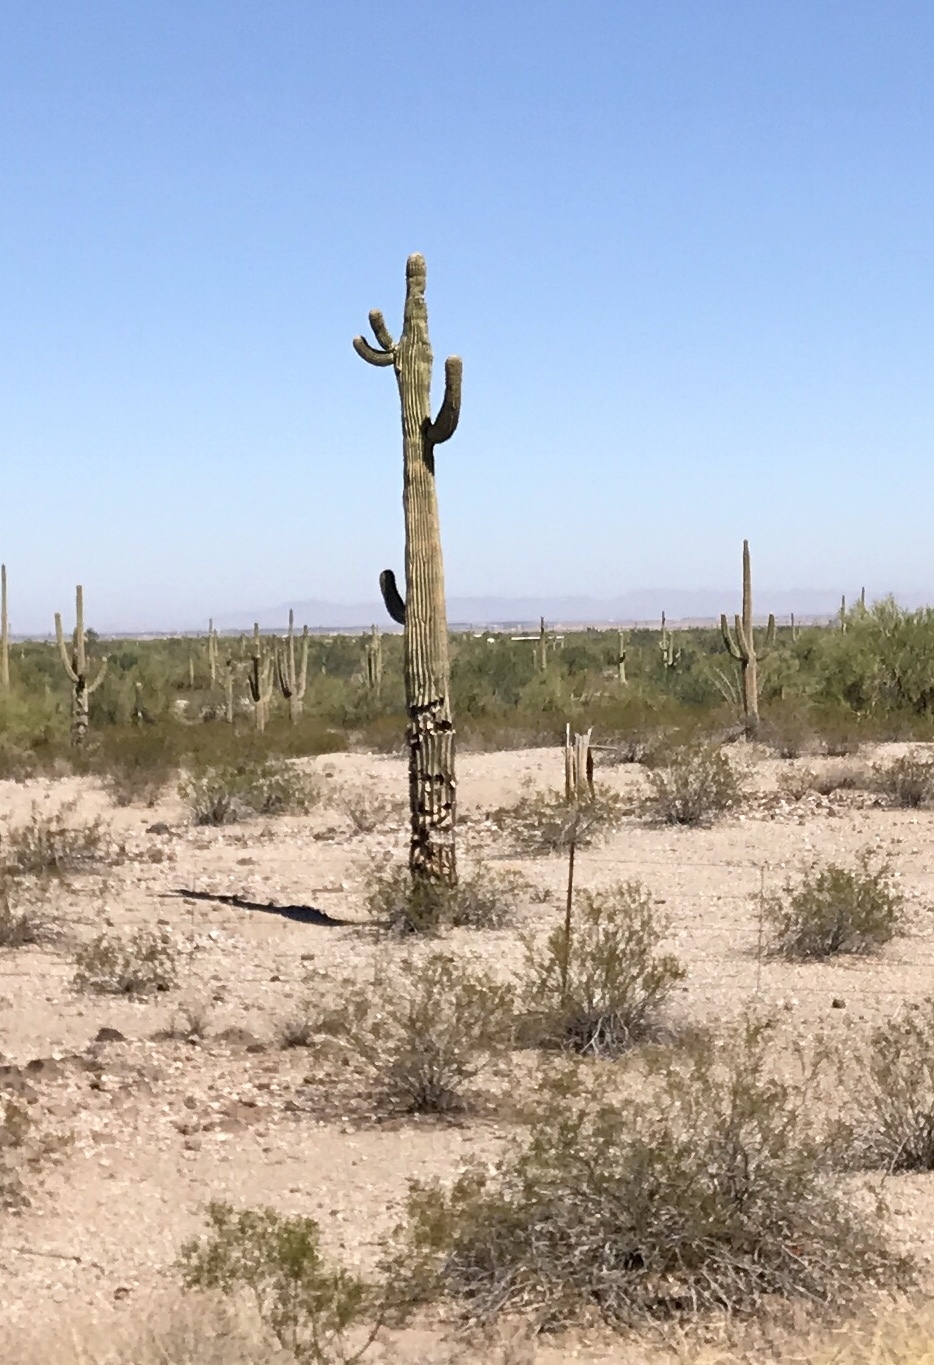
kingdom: Plantae
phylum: Tracheophyta
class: Magnoliopsida
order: Caryophyllales
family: Cactaceae
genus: Carnegiea
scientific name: Carnegiea gigantea
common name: Saguaro
